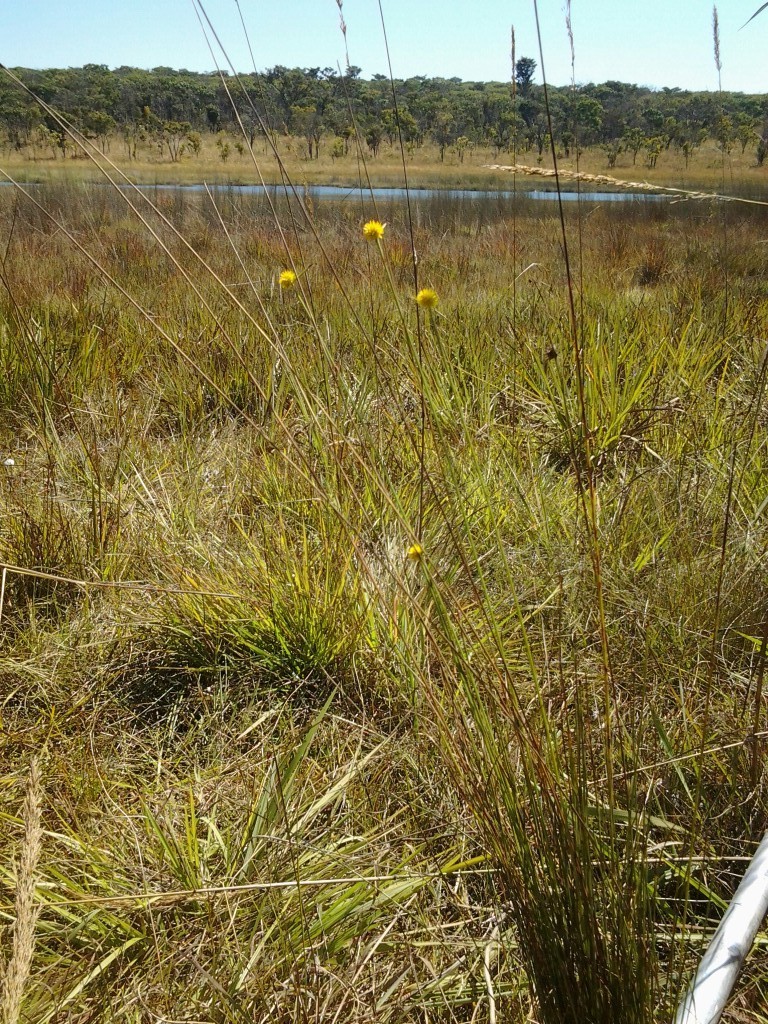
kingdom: Plantae
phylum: Tracheophyta
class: Liliopsida
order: Poales
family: Cyperaceae
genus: Cyperus
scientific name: Cyperus proteus
